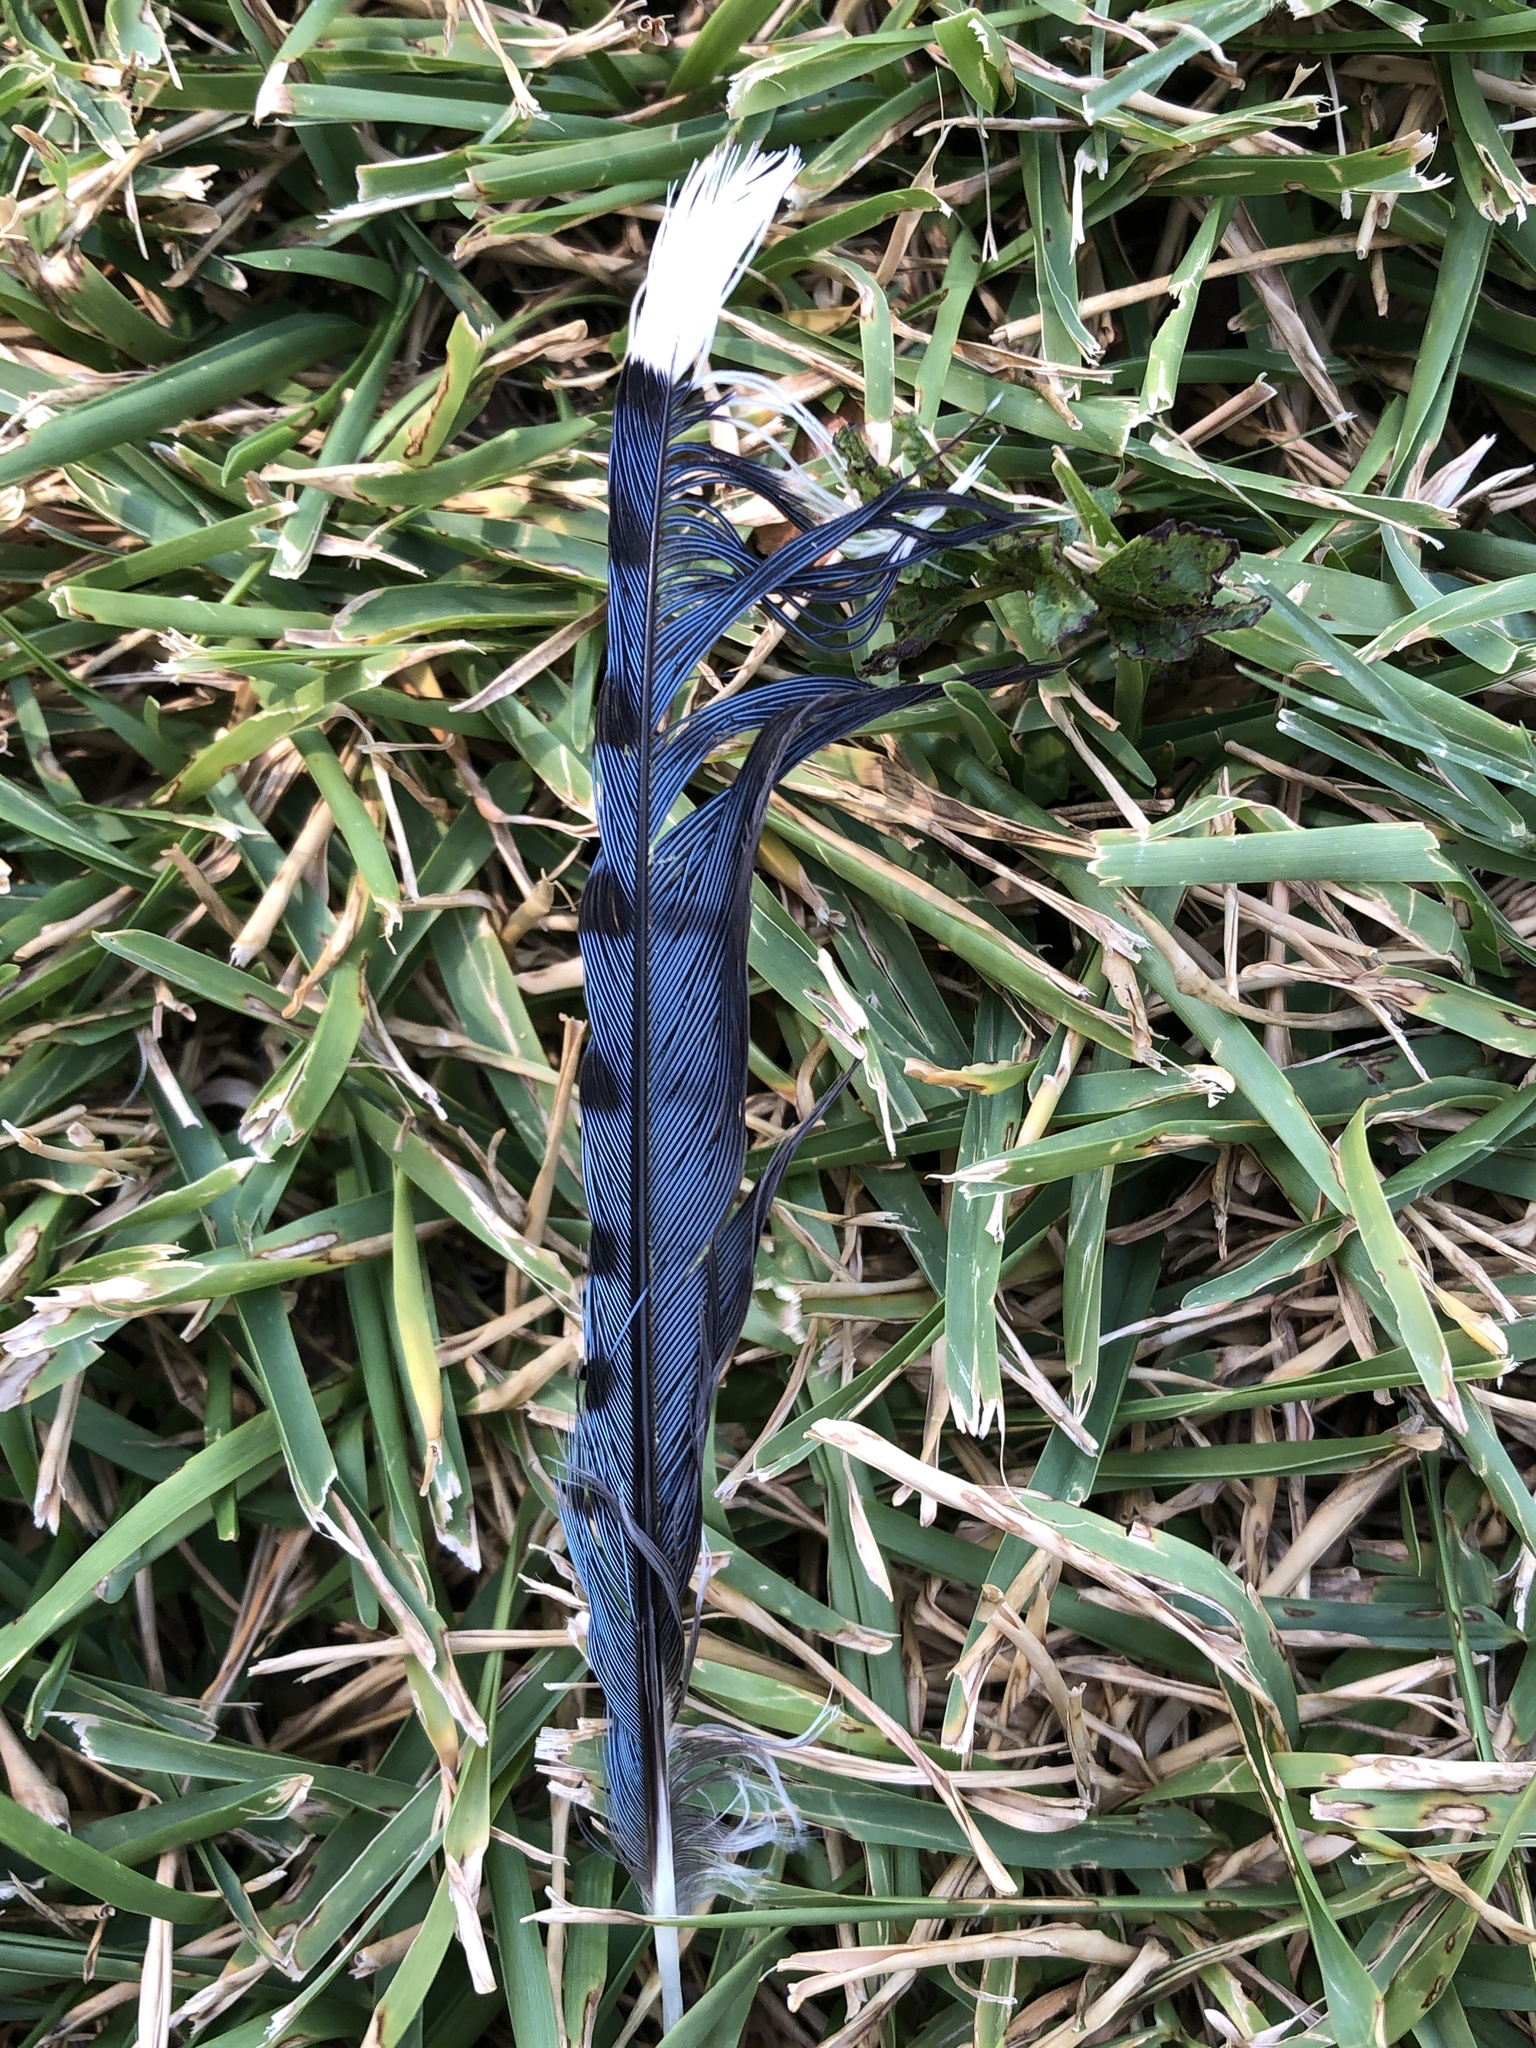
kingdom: Animalia
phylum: Chordata
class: Aves
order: Passeriformes
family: Corvidae
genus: Cyanocitta
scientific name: Cyanocitta cristata
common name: Blue jay
